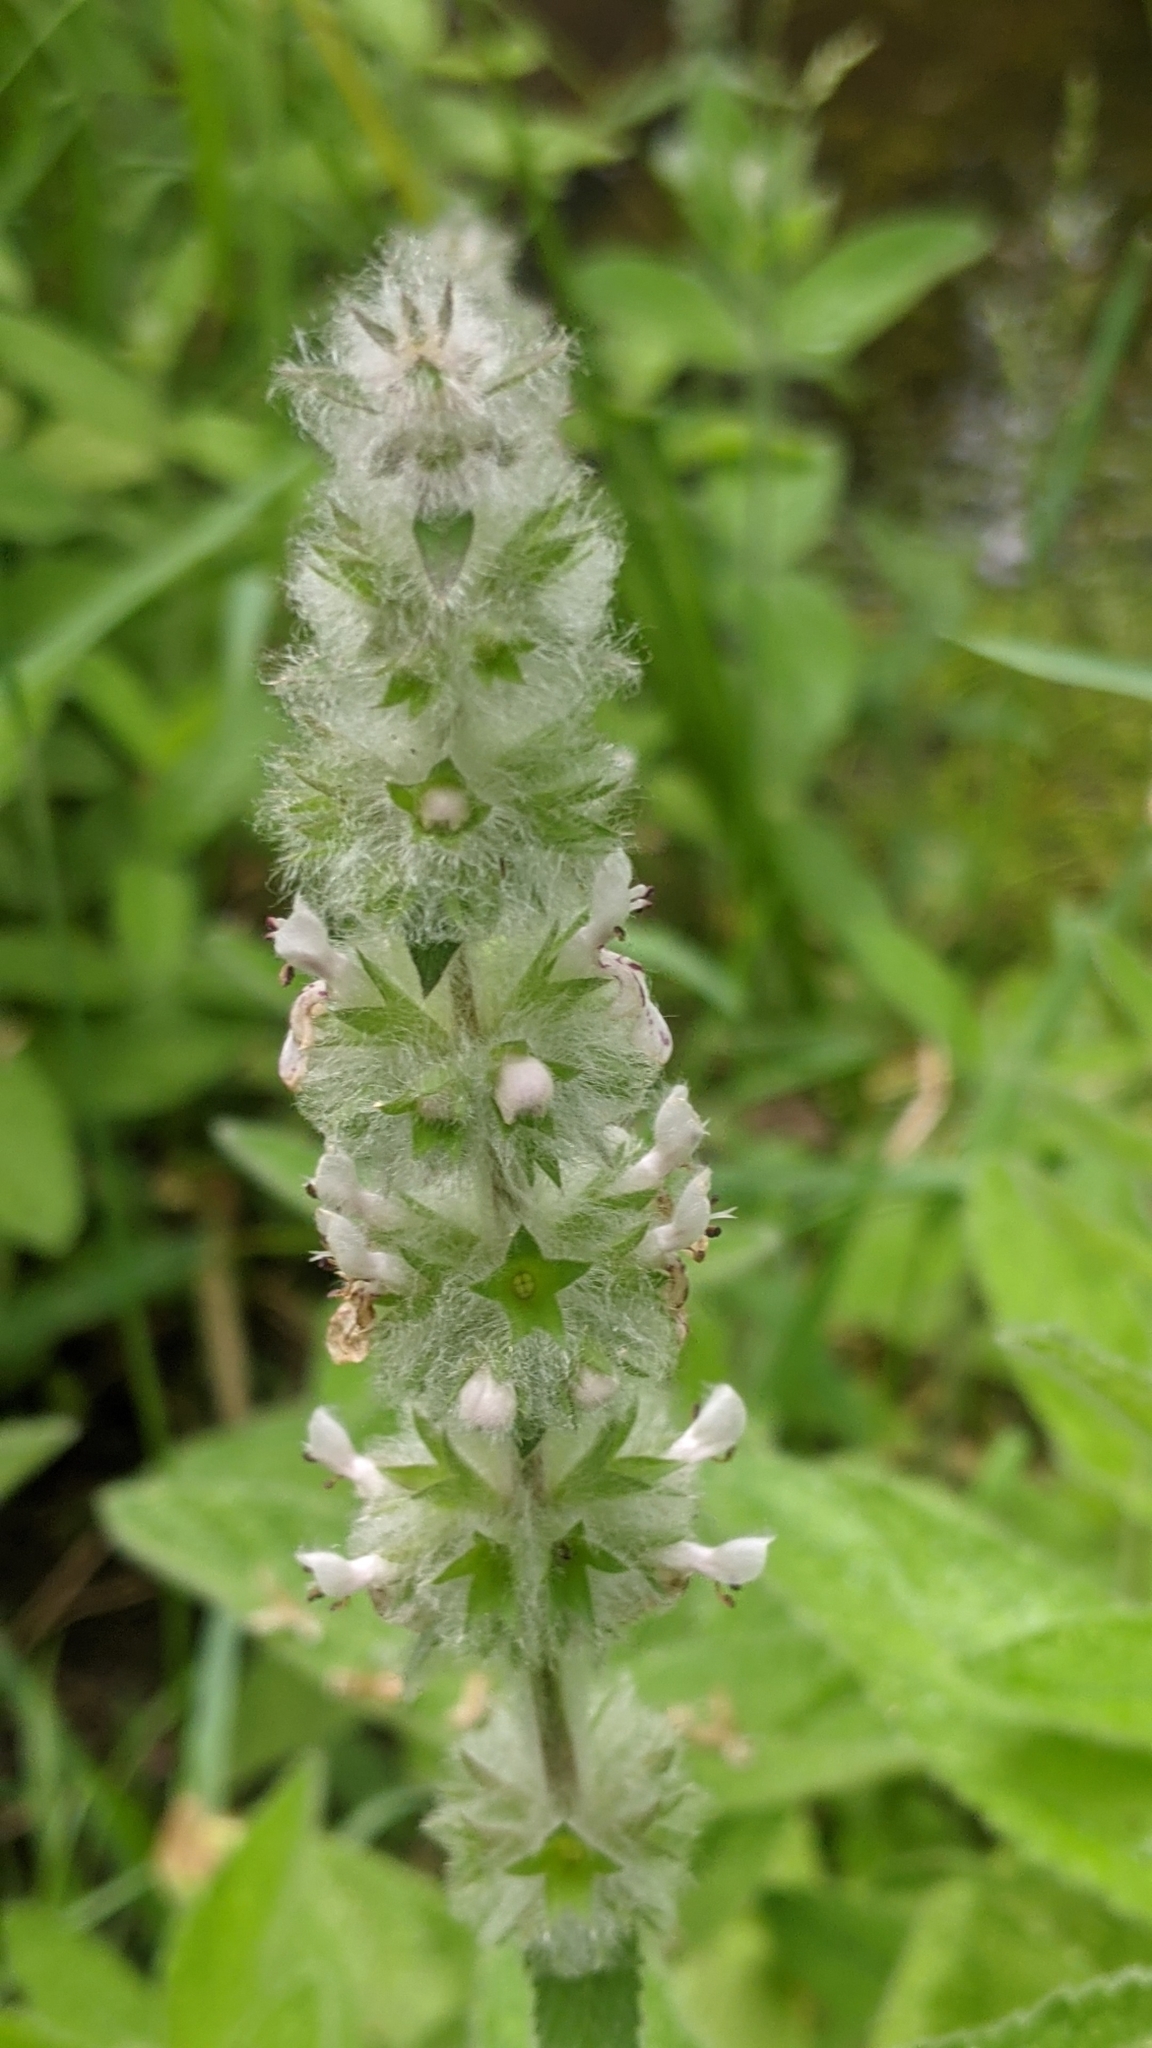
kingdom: Plantae
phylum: Tracheophyta
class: Magnoliopsida
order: Lamiales
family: Lamiaceae
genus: Stachys
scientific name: Stachys albens
